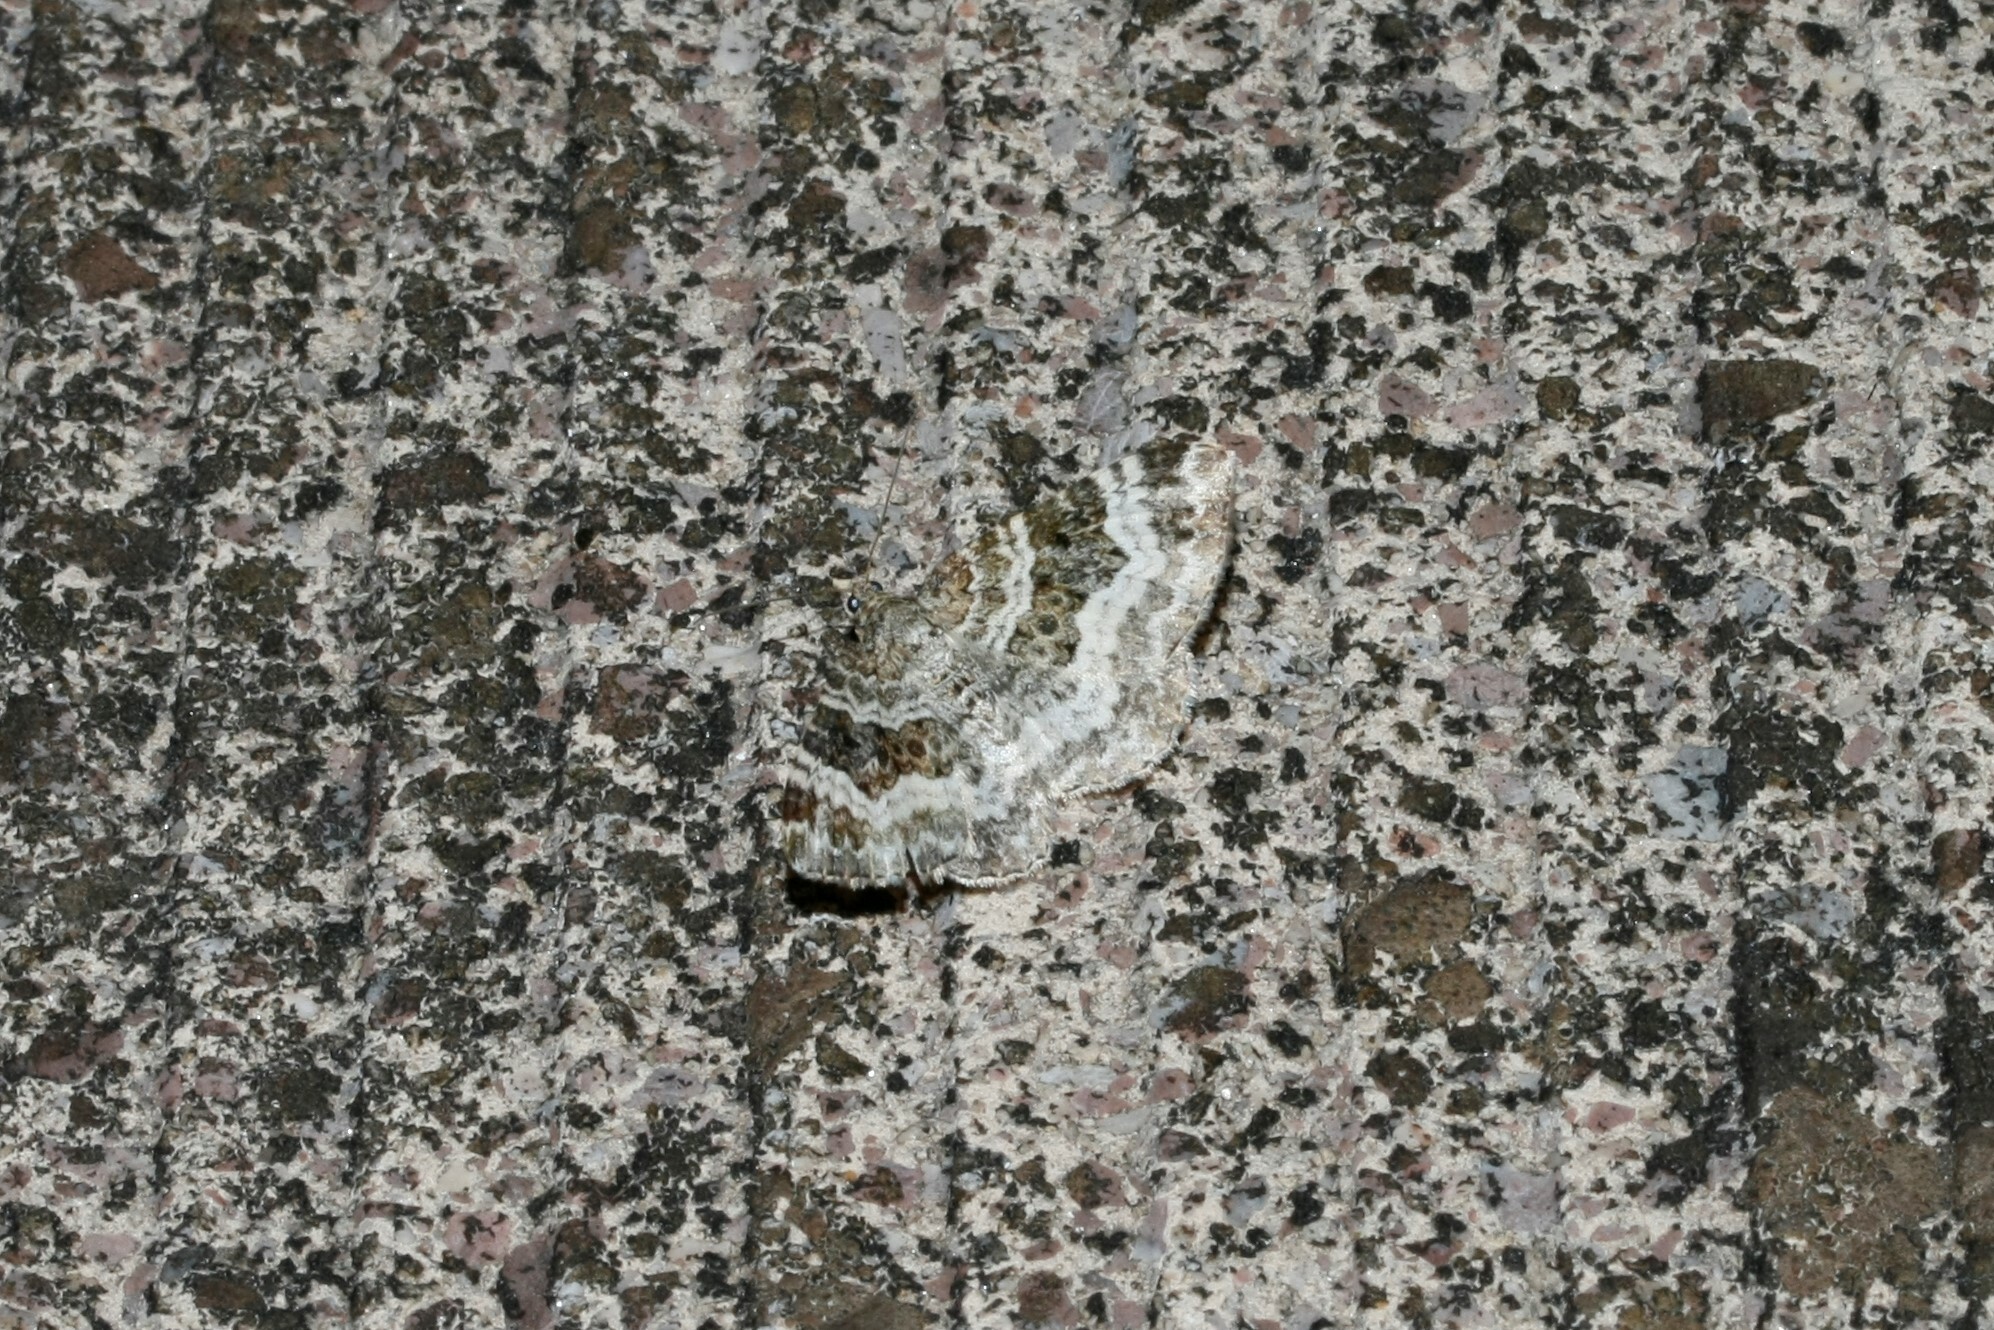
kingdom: Animalia
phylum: Arthropoda
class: Insecta
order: Lepidoptera
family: Geometridae
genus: Epirrhoe
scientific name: Epirrhoe alternata
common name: Common carpet
